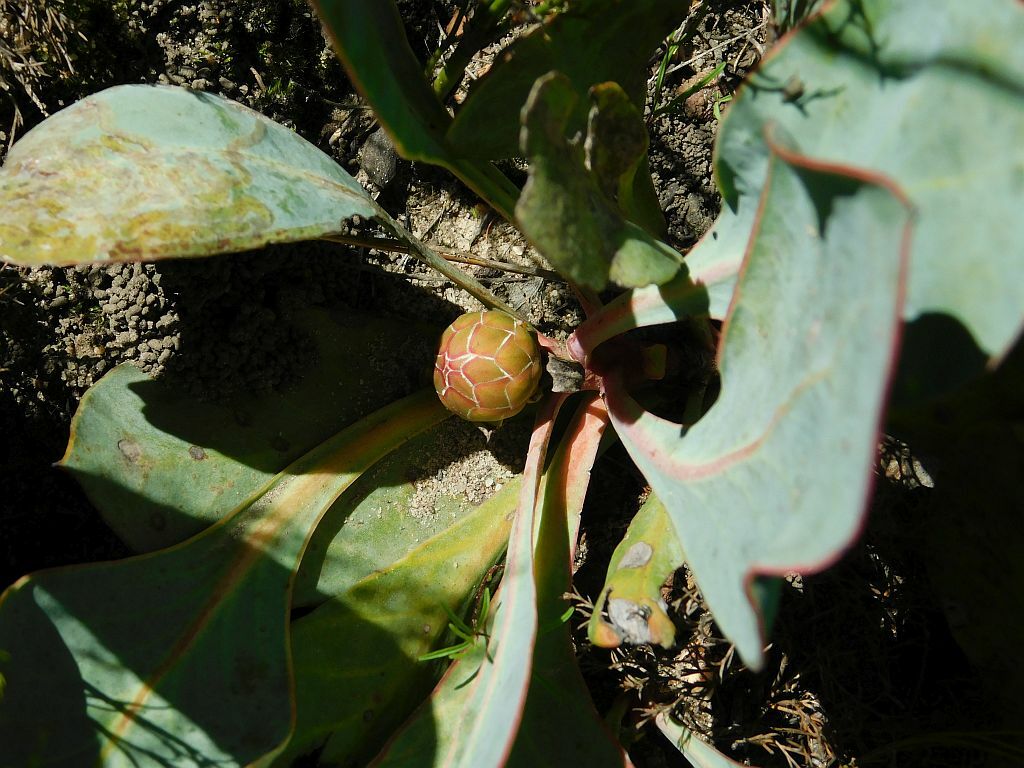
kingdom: Plantae
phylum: Tracheophyta
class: Magnoliopsida
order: Proteales
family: Proteaceae
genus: Protea
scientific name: Protea acaulos
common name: Common ground sugarbush
